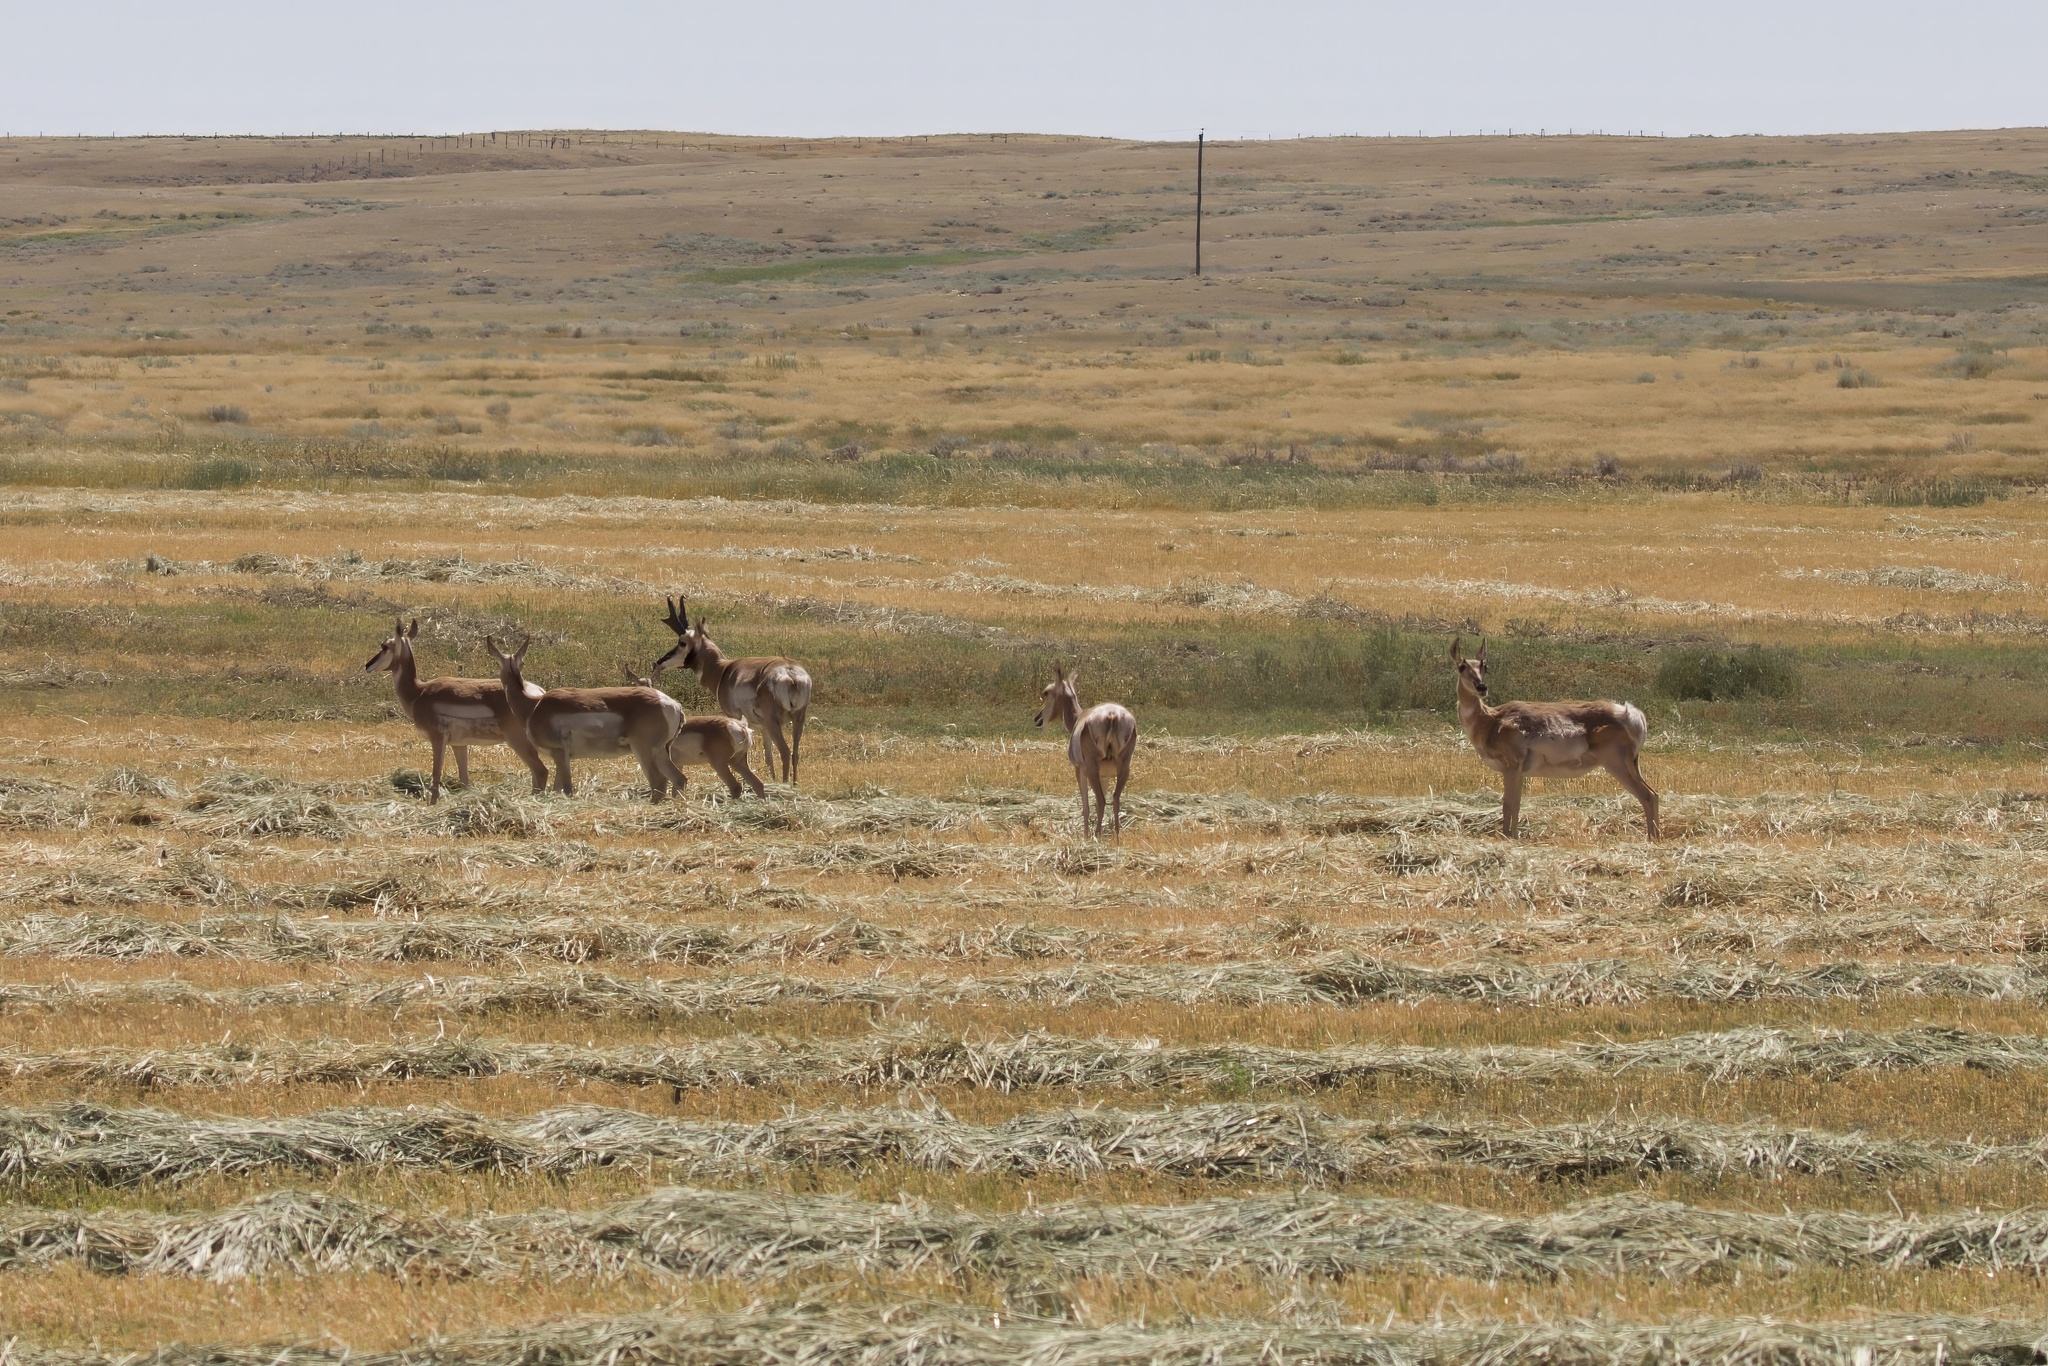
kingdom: Animalia
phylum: Chordata
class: Mammalia
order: Artiodactyla
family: Antilocapridae
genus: Antilocapra
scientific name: Antilocapra americana
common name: Pronghorn
